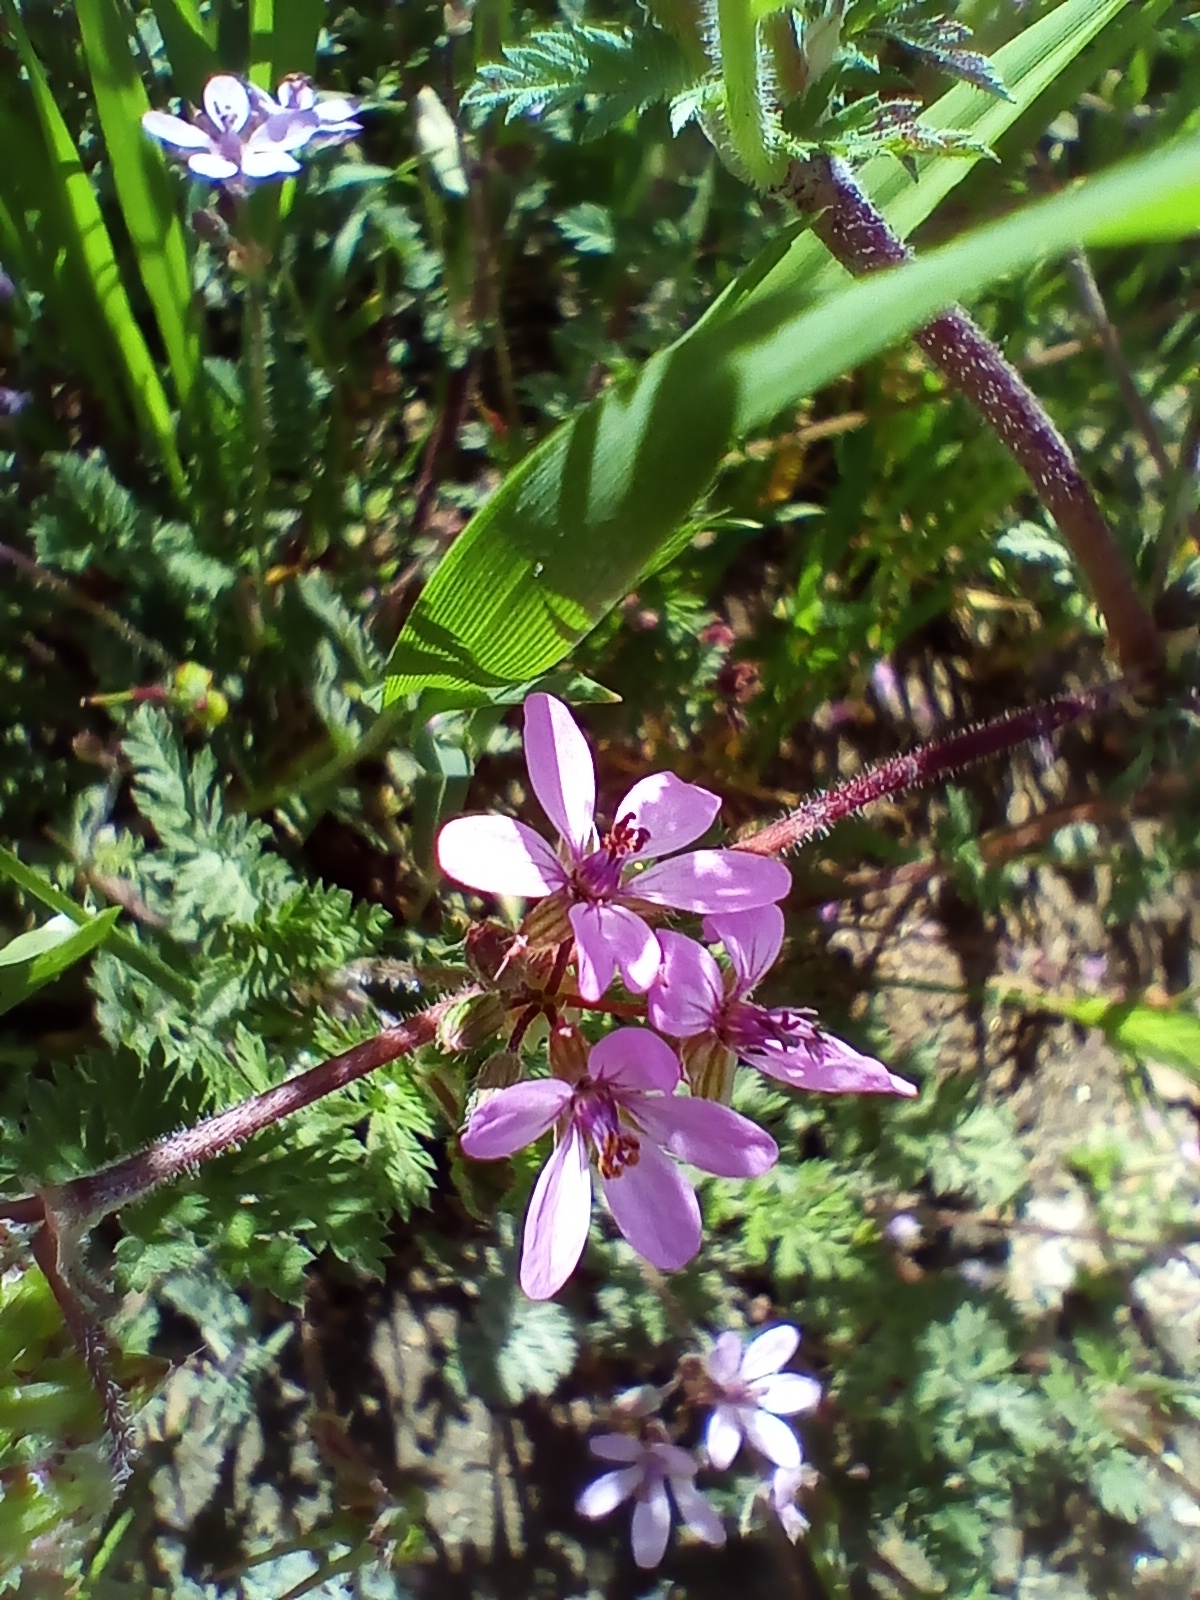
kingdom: Plantae
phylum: Tracheophyta
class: Magnoliopsida
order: Geraniales
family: Geraniaceae
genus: Erodium
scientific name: Erodium cicutarium
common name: Common stork's-bill
